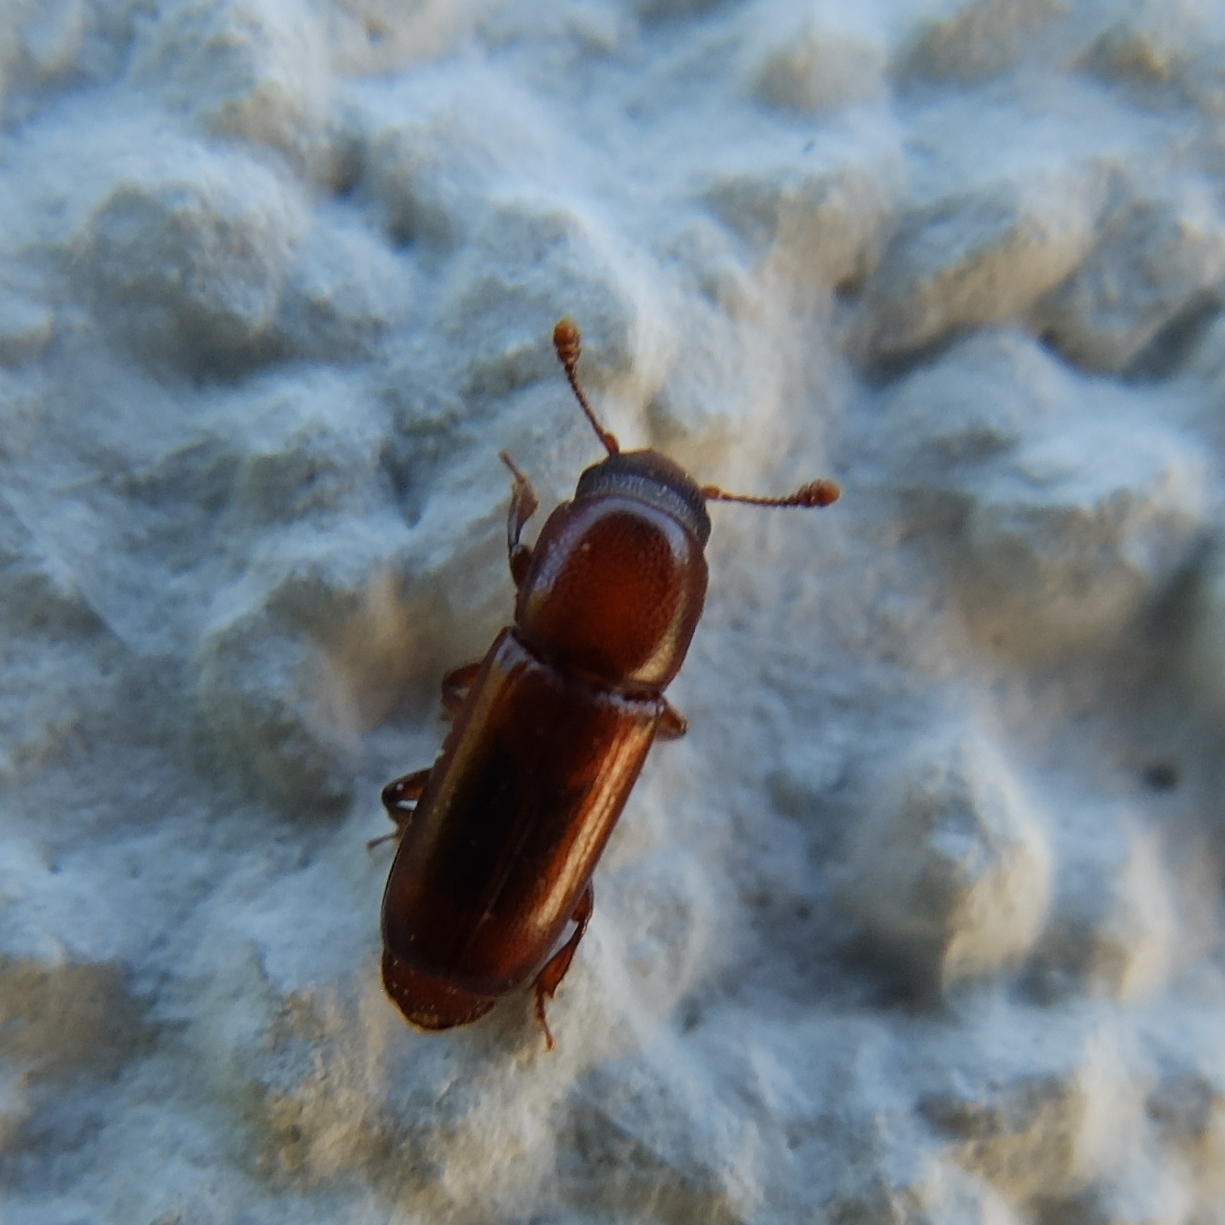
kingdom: Animalia
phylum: Arthropoda
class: Insecta
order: Coleoptera
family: Nitidulidae
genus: Pityophagus
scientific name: Pityophagus ferrugineus
